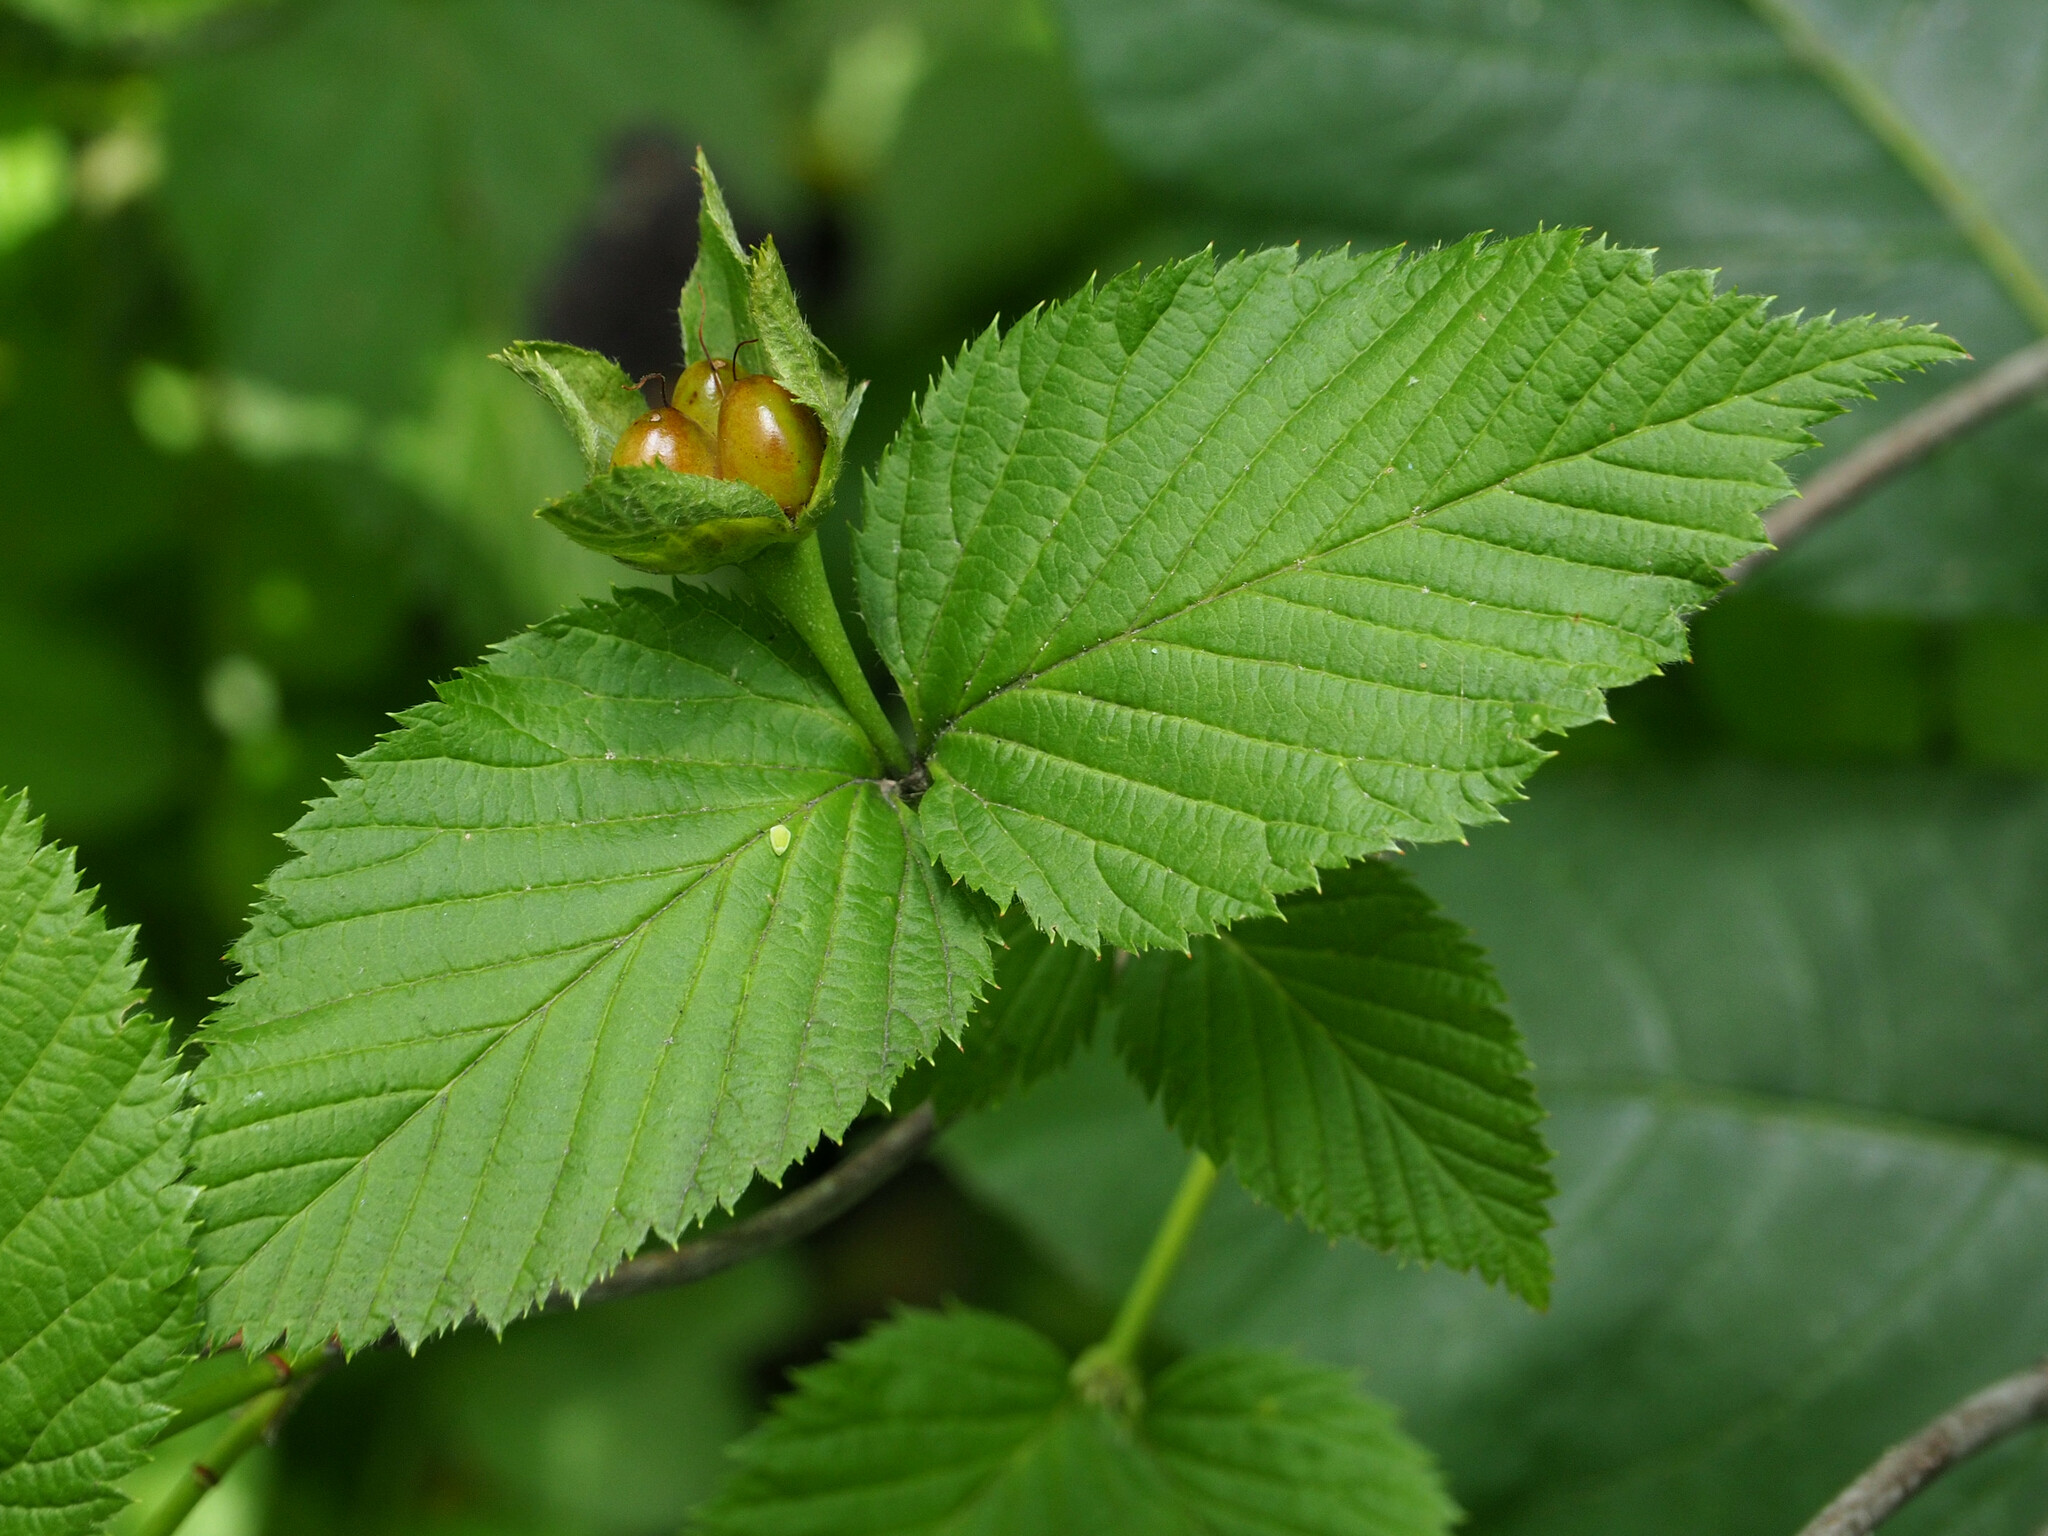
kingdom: Plantae
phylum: Tracheophyta
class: Magnoliopsida
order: Rosales
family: Rosaceae
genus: Rhodotypos
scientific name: Rhodotypos scandens
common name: Jetbead
